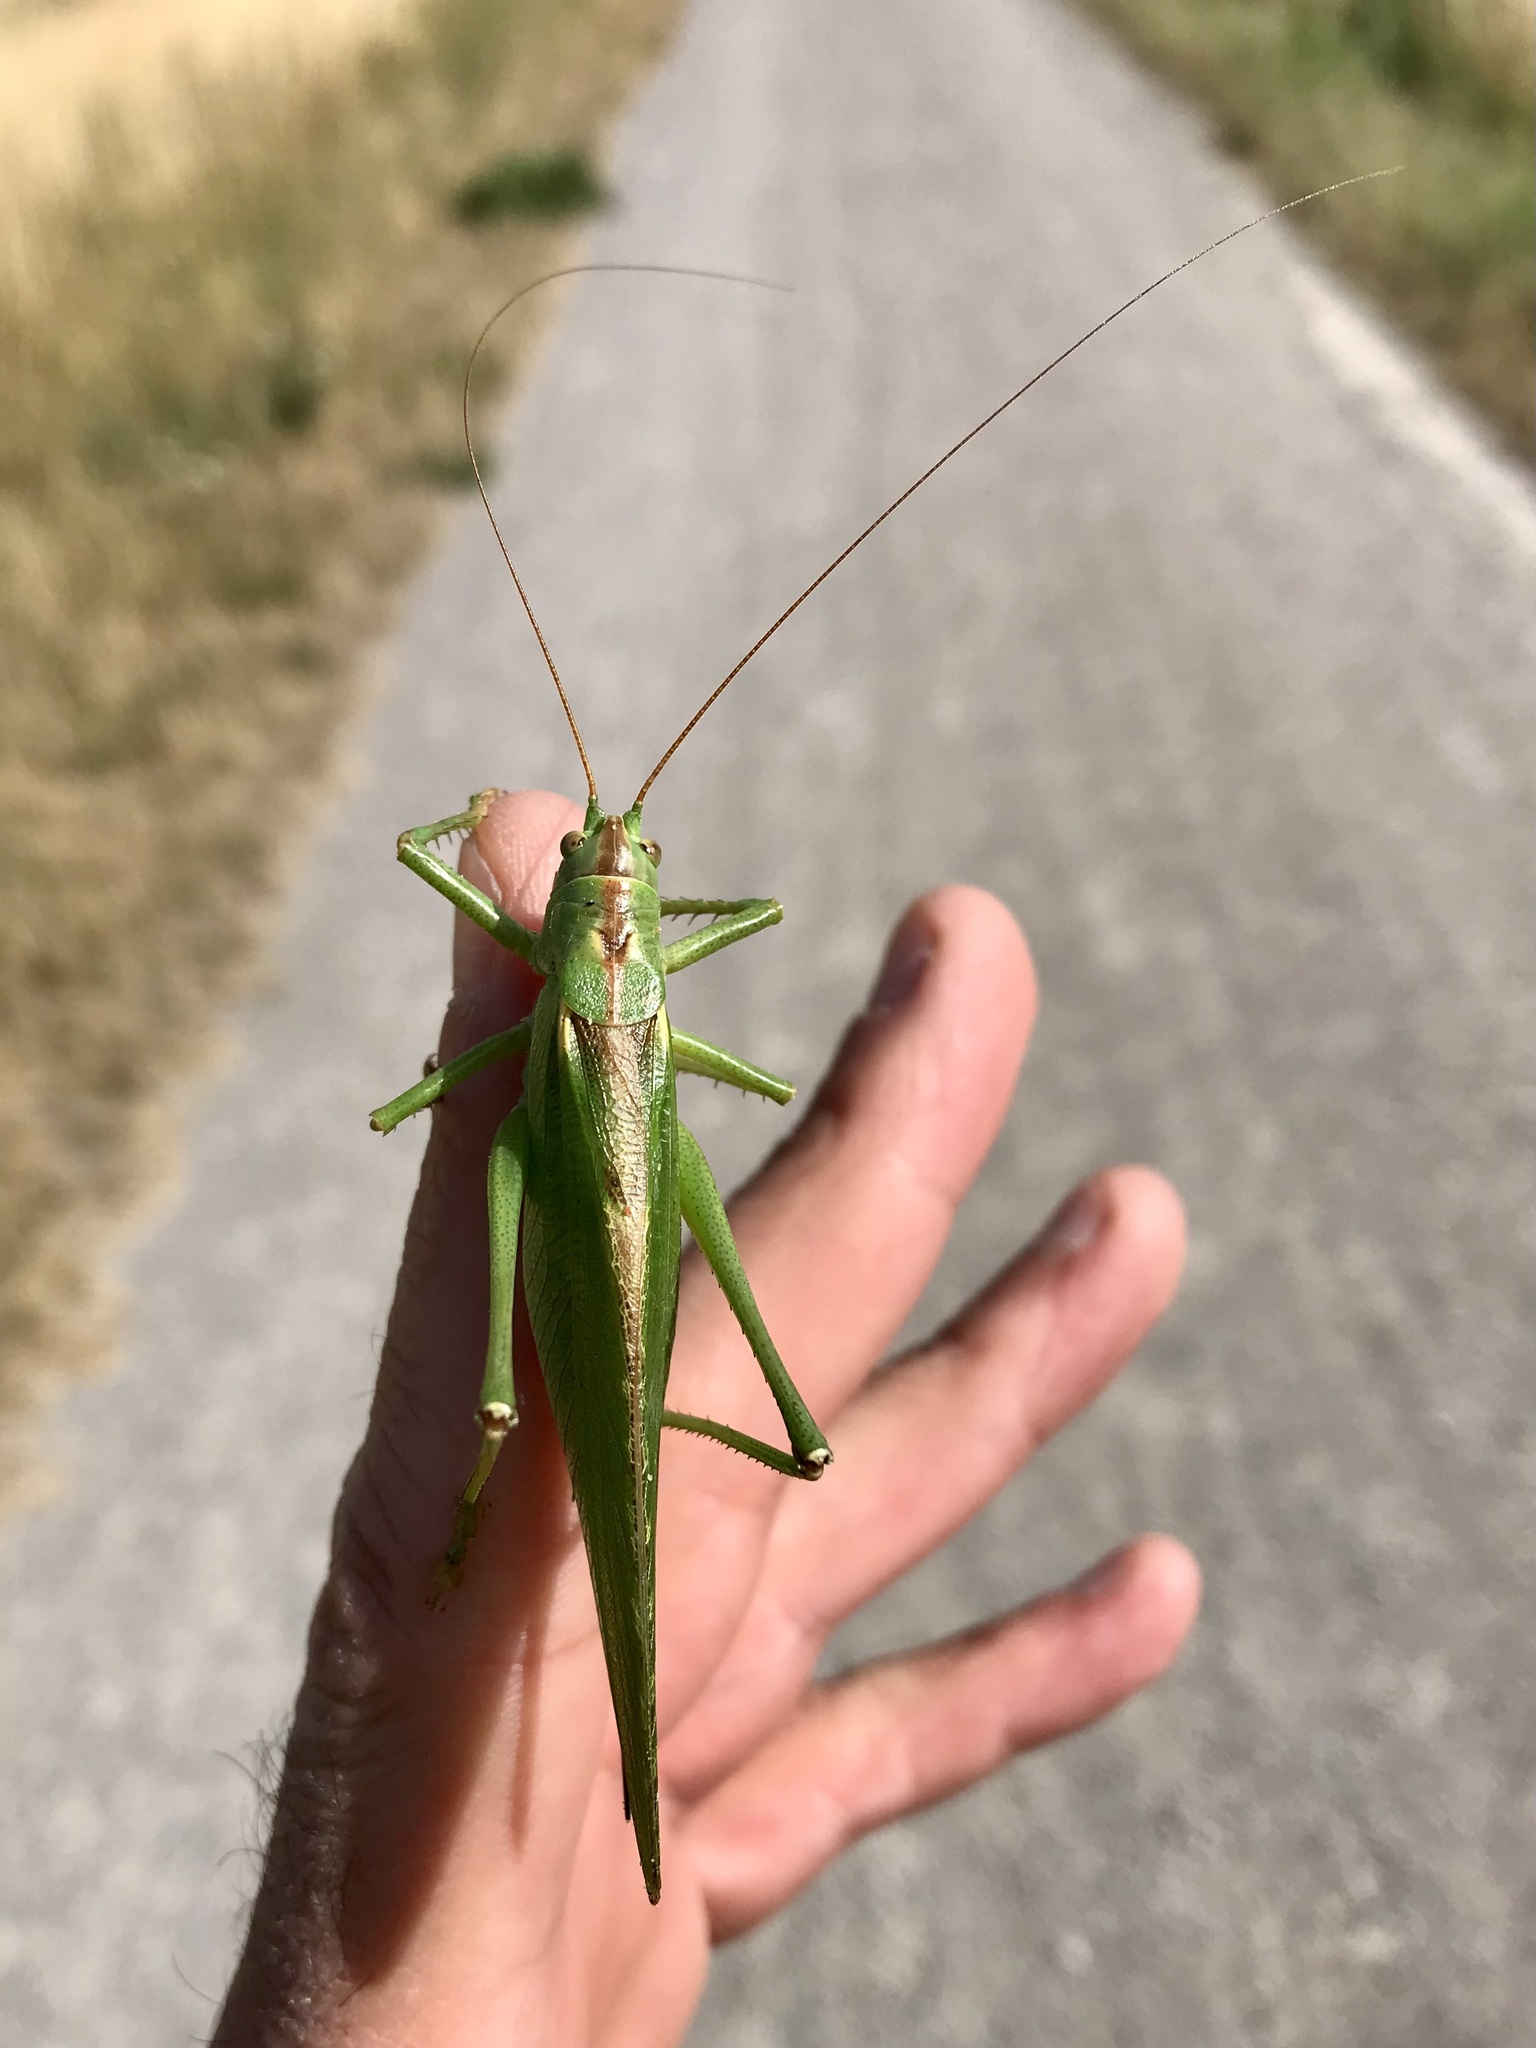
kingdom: Animalia
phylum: Arthropoda
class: Insecta
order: Orthoptera
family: Tettigoniidae
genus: Tettigonia
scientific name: Tettigonia viridissima
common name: Great green bush-cricket
